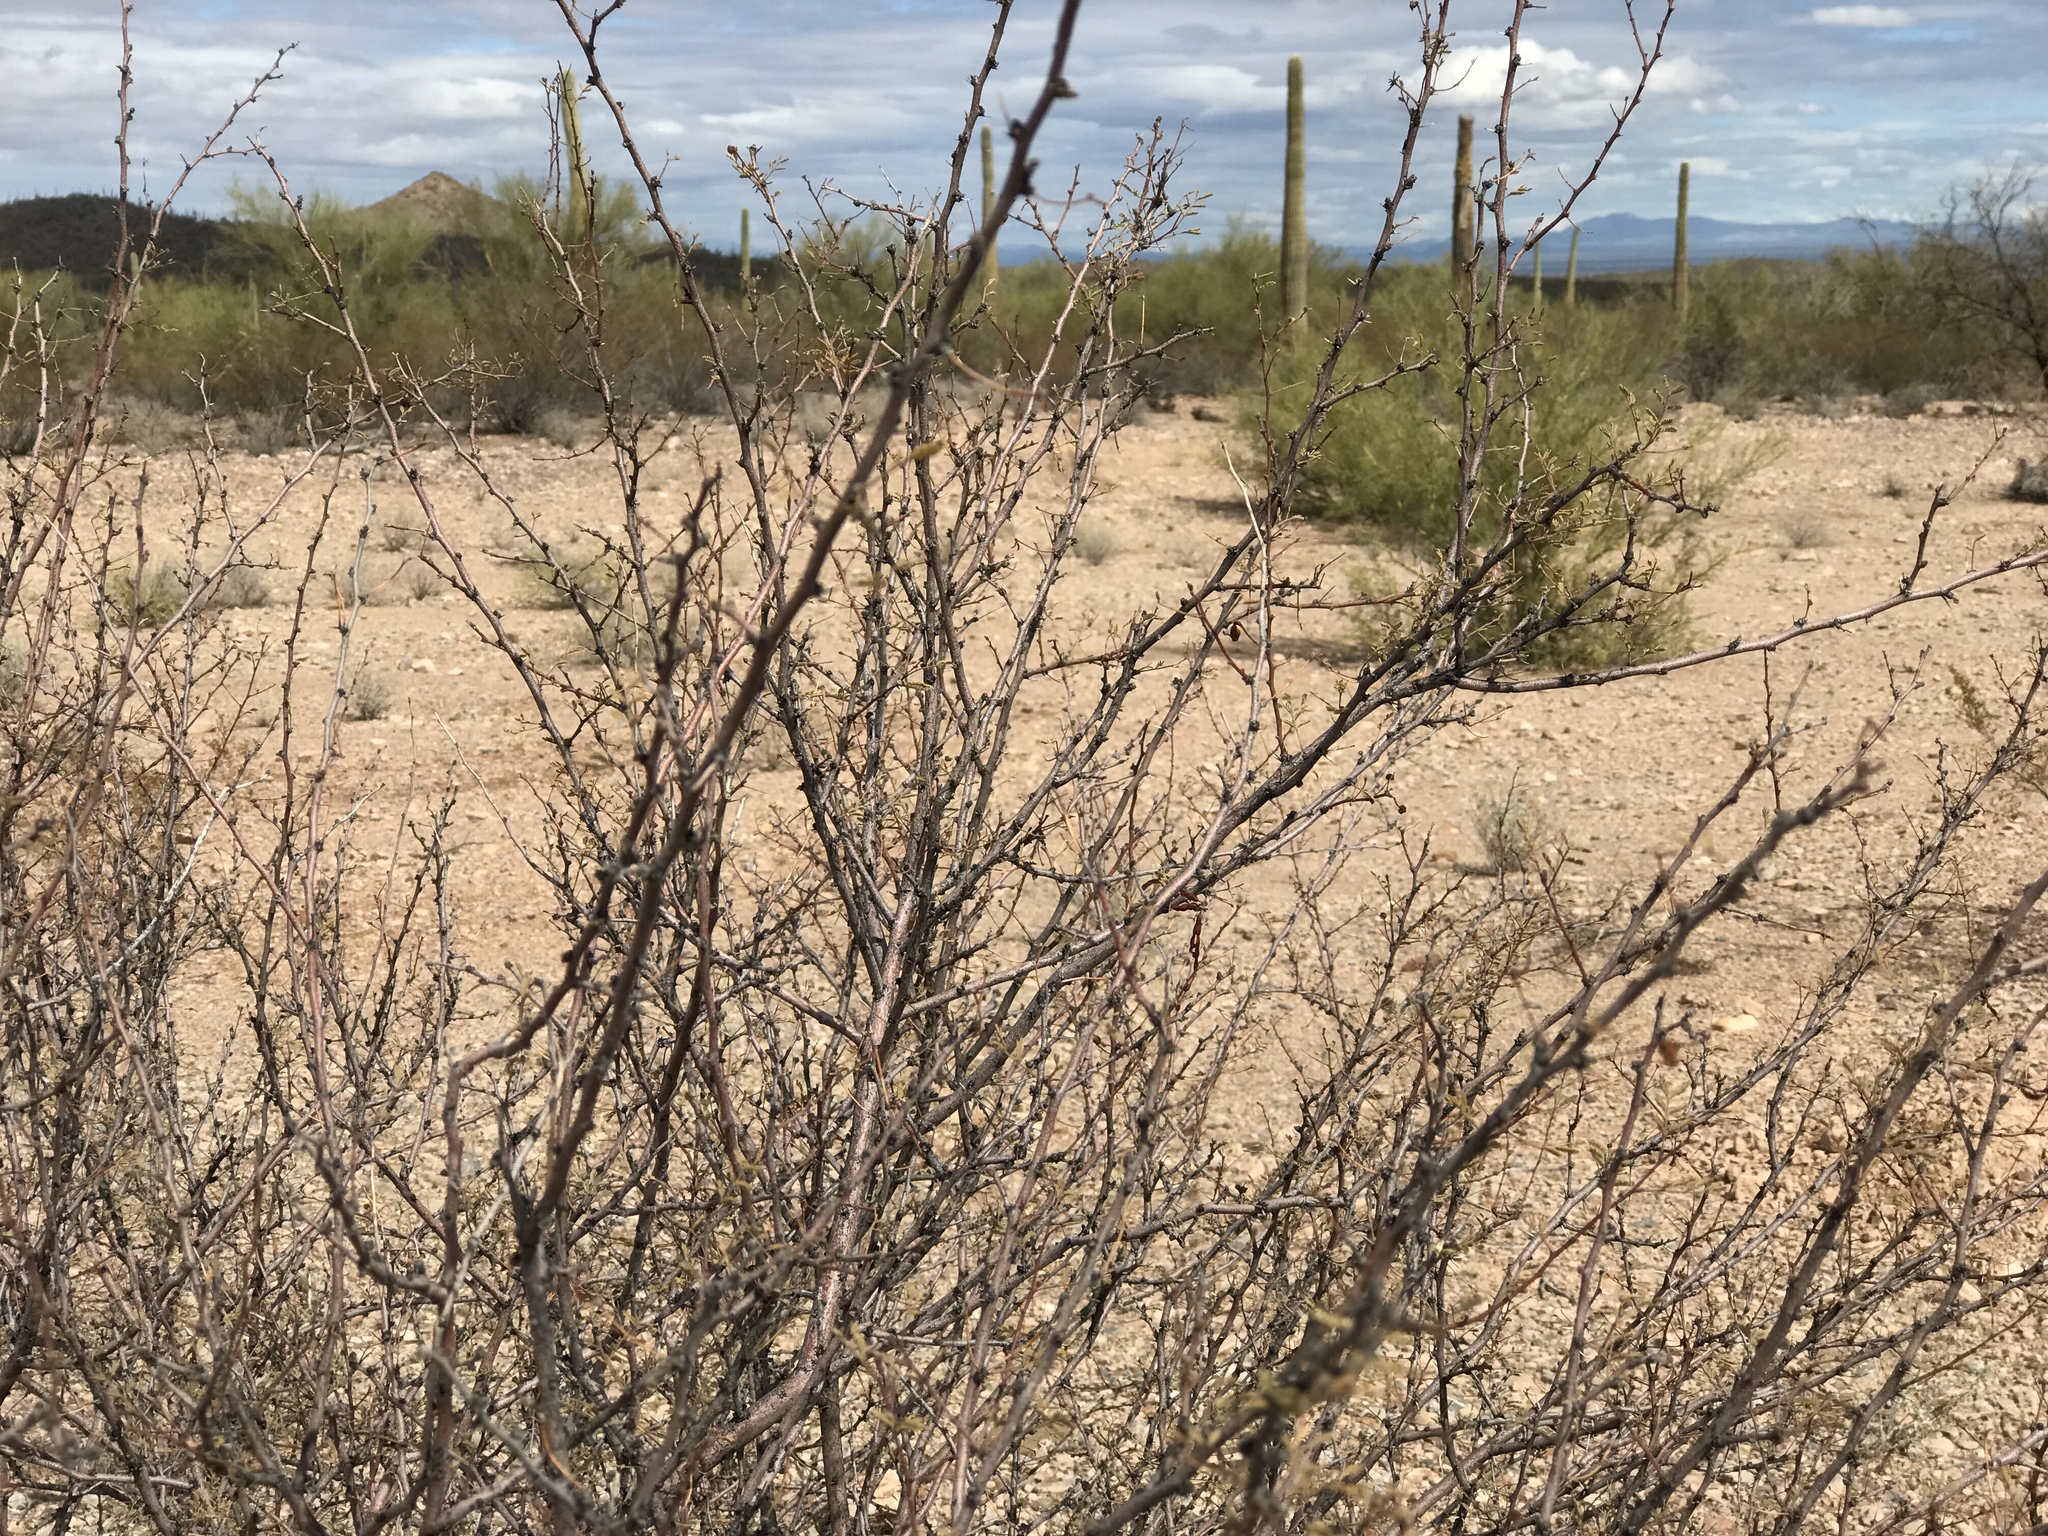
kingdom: Plantae
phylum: Tracheophyta
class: Magnoliopsida
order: Fabales
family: Fabaceae
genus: Vachellia
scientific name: Vachellia constricta
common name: Mescat acacia
